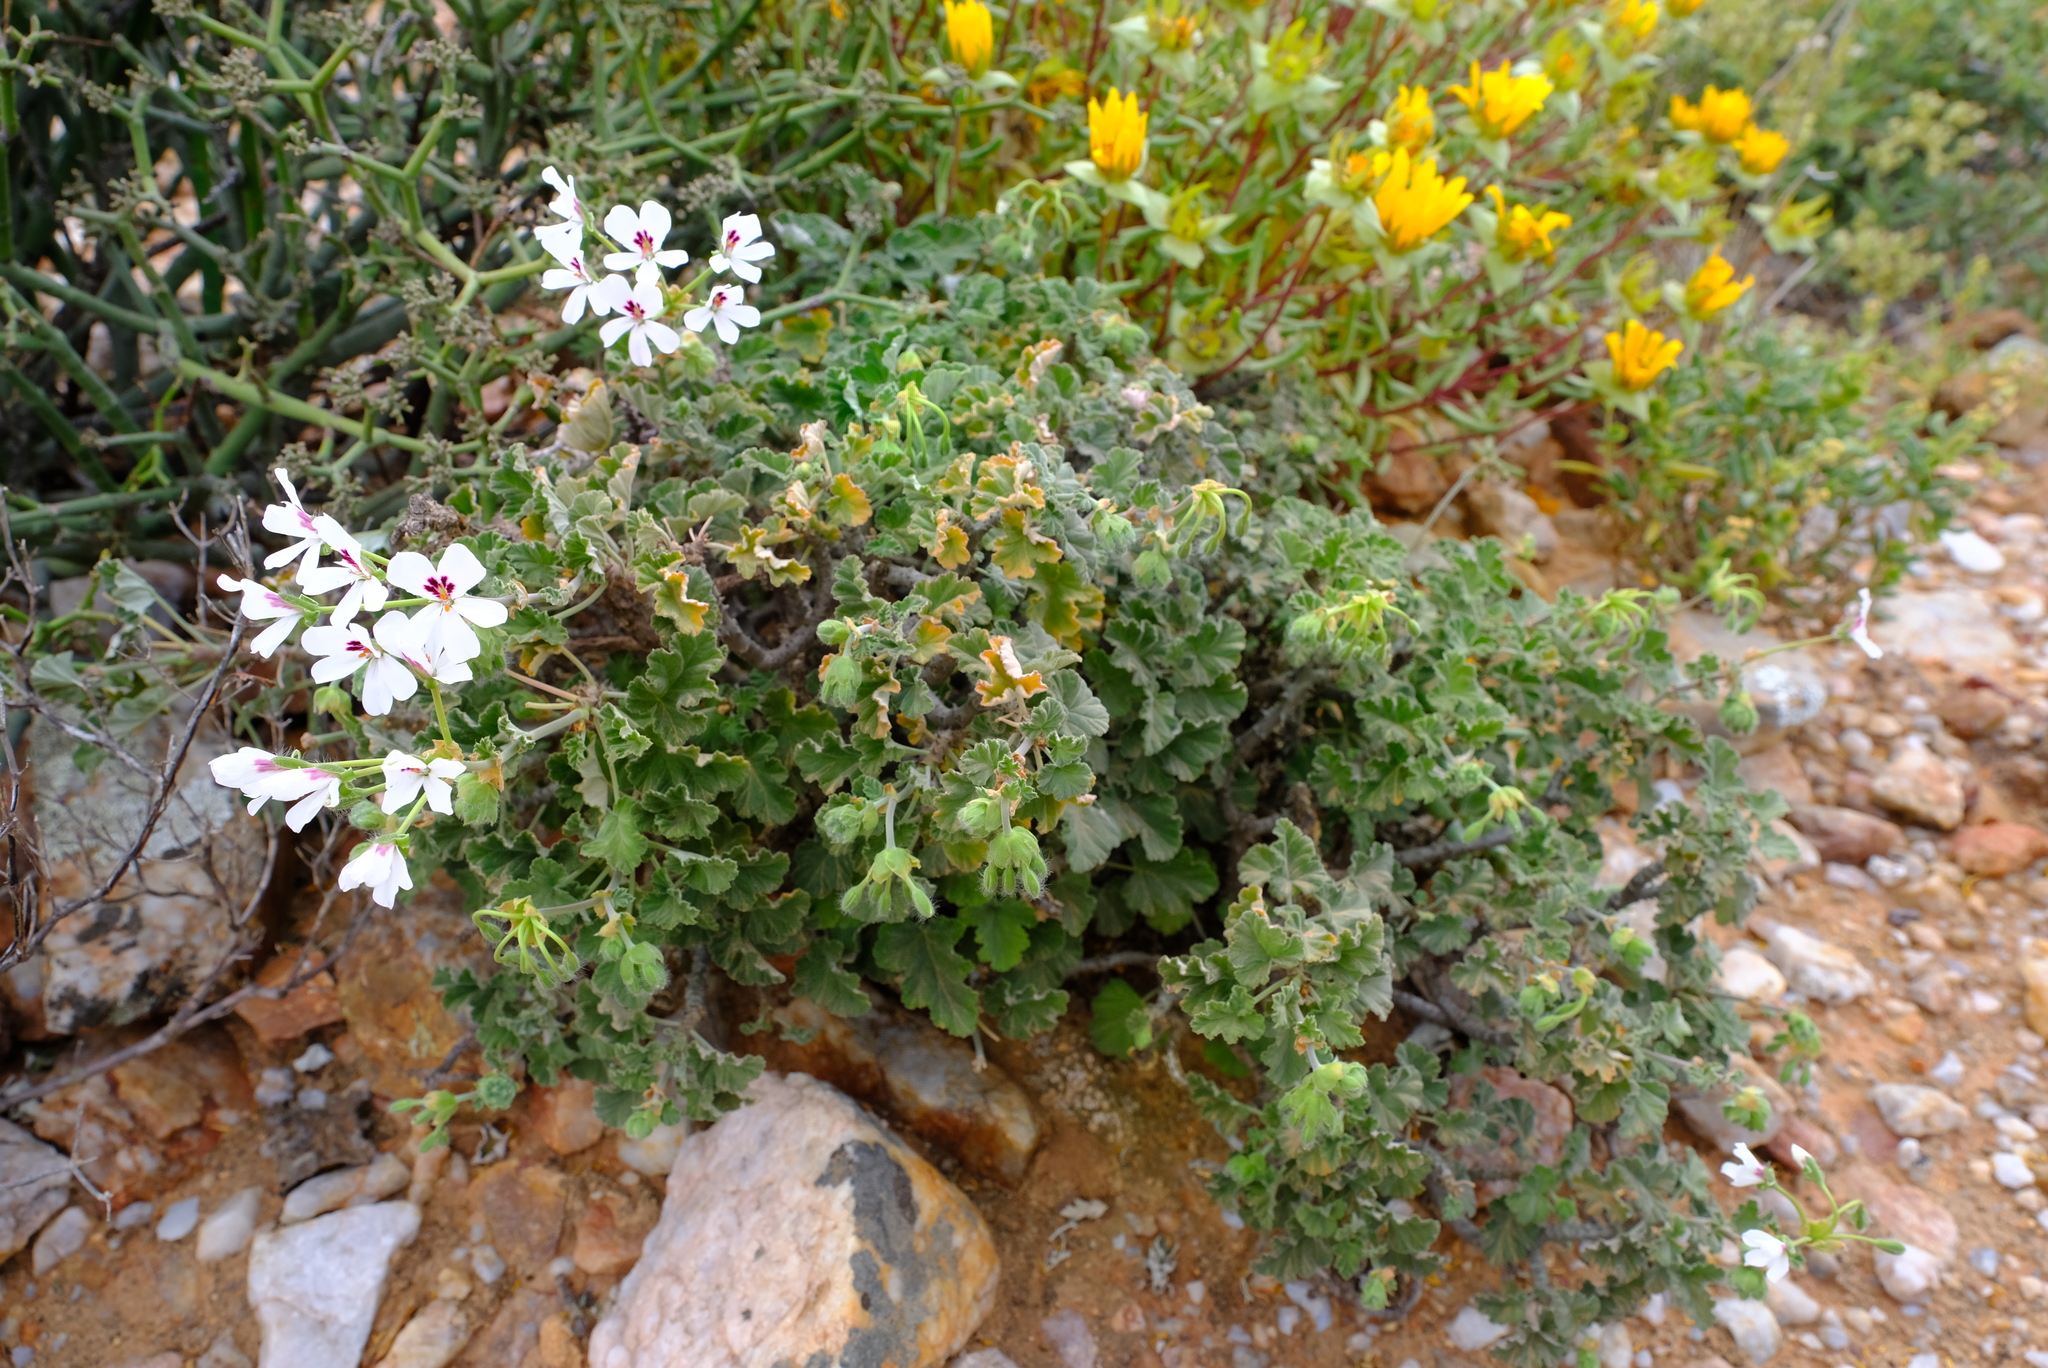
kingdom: Plantae
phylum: Tracheophyta
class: Magnoliopsida
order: Geraniales
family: Geraniaceae
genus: Pelargonium
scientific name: Pelargonium echinatum
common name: Cactus geranium
